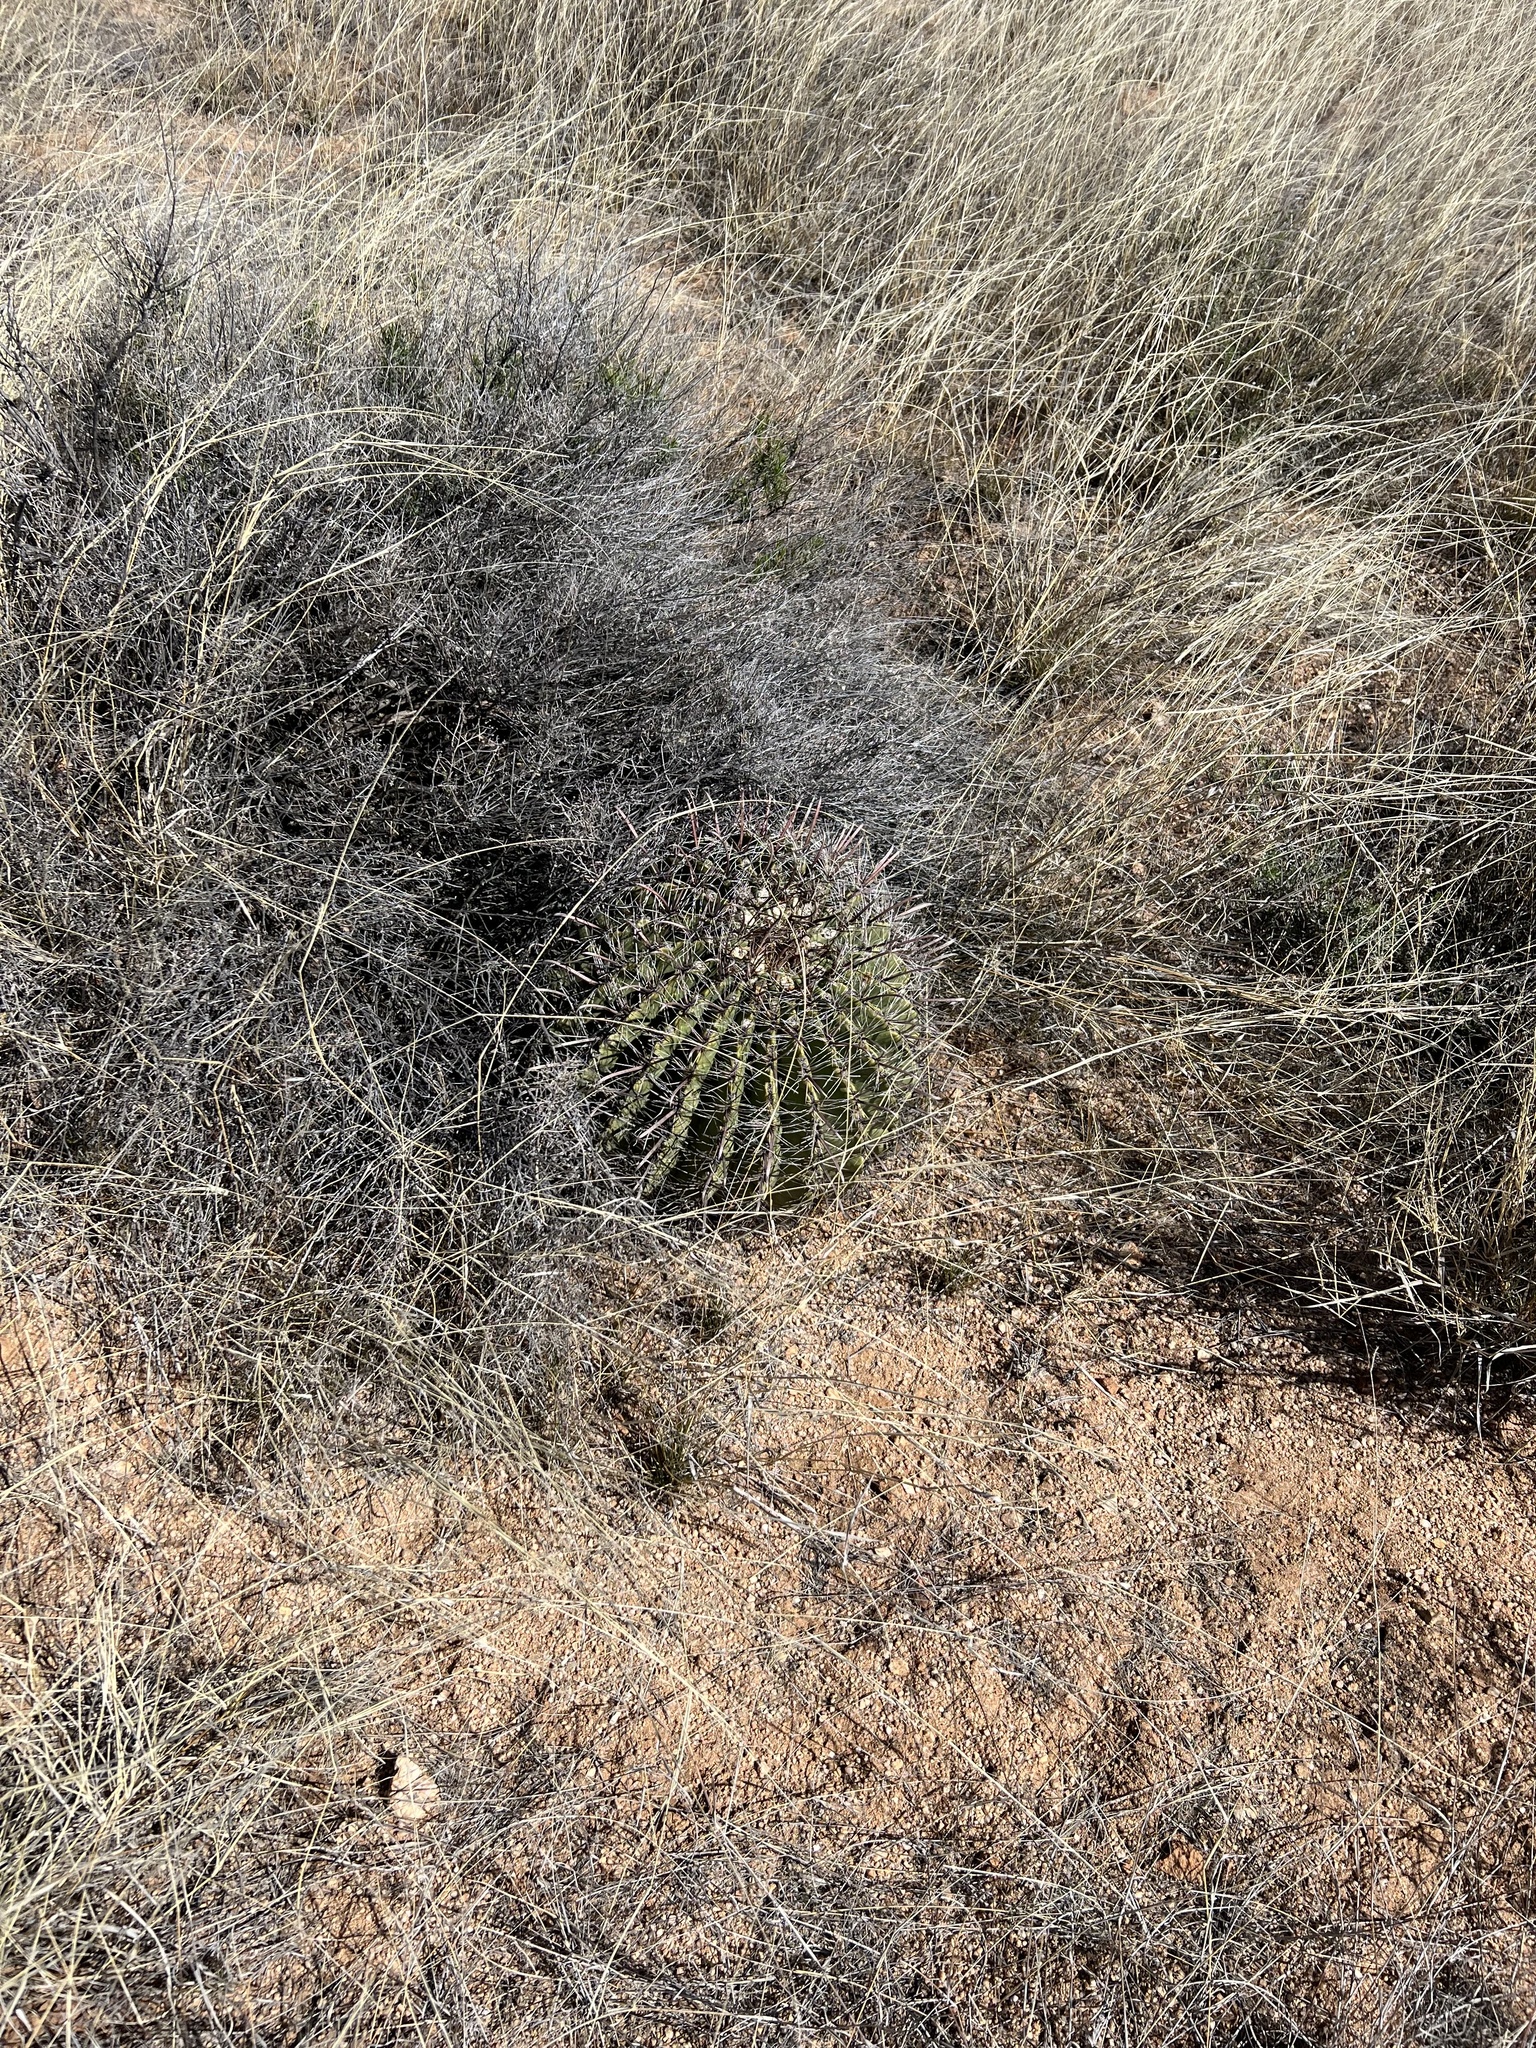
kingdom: Plantae
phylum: Tracheophyta
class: Magnoliopsida
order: Caryophyllales
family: Cactaceae
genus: Ferocactus
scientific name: Ferocactus wislizeni
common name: Candy barrel cactus
